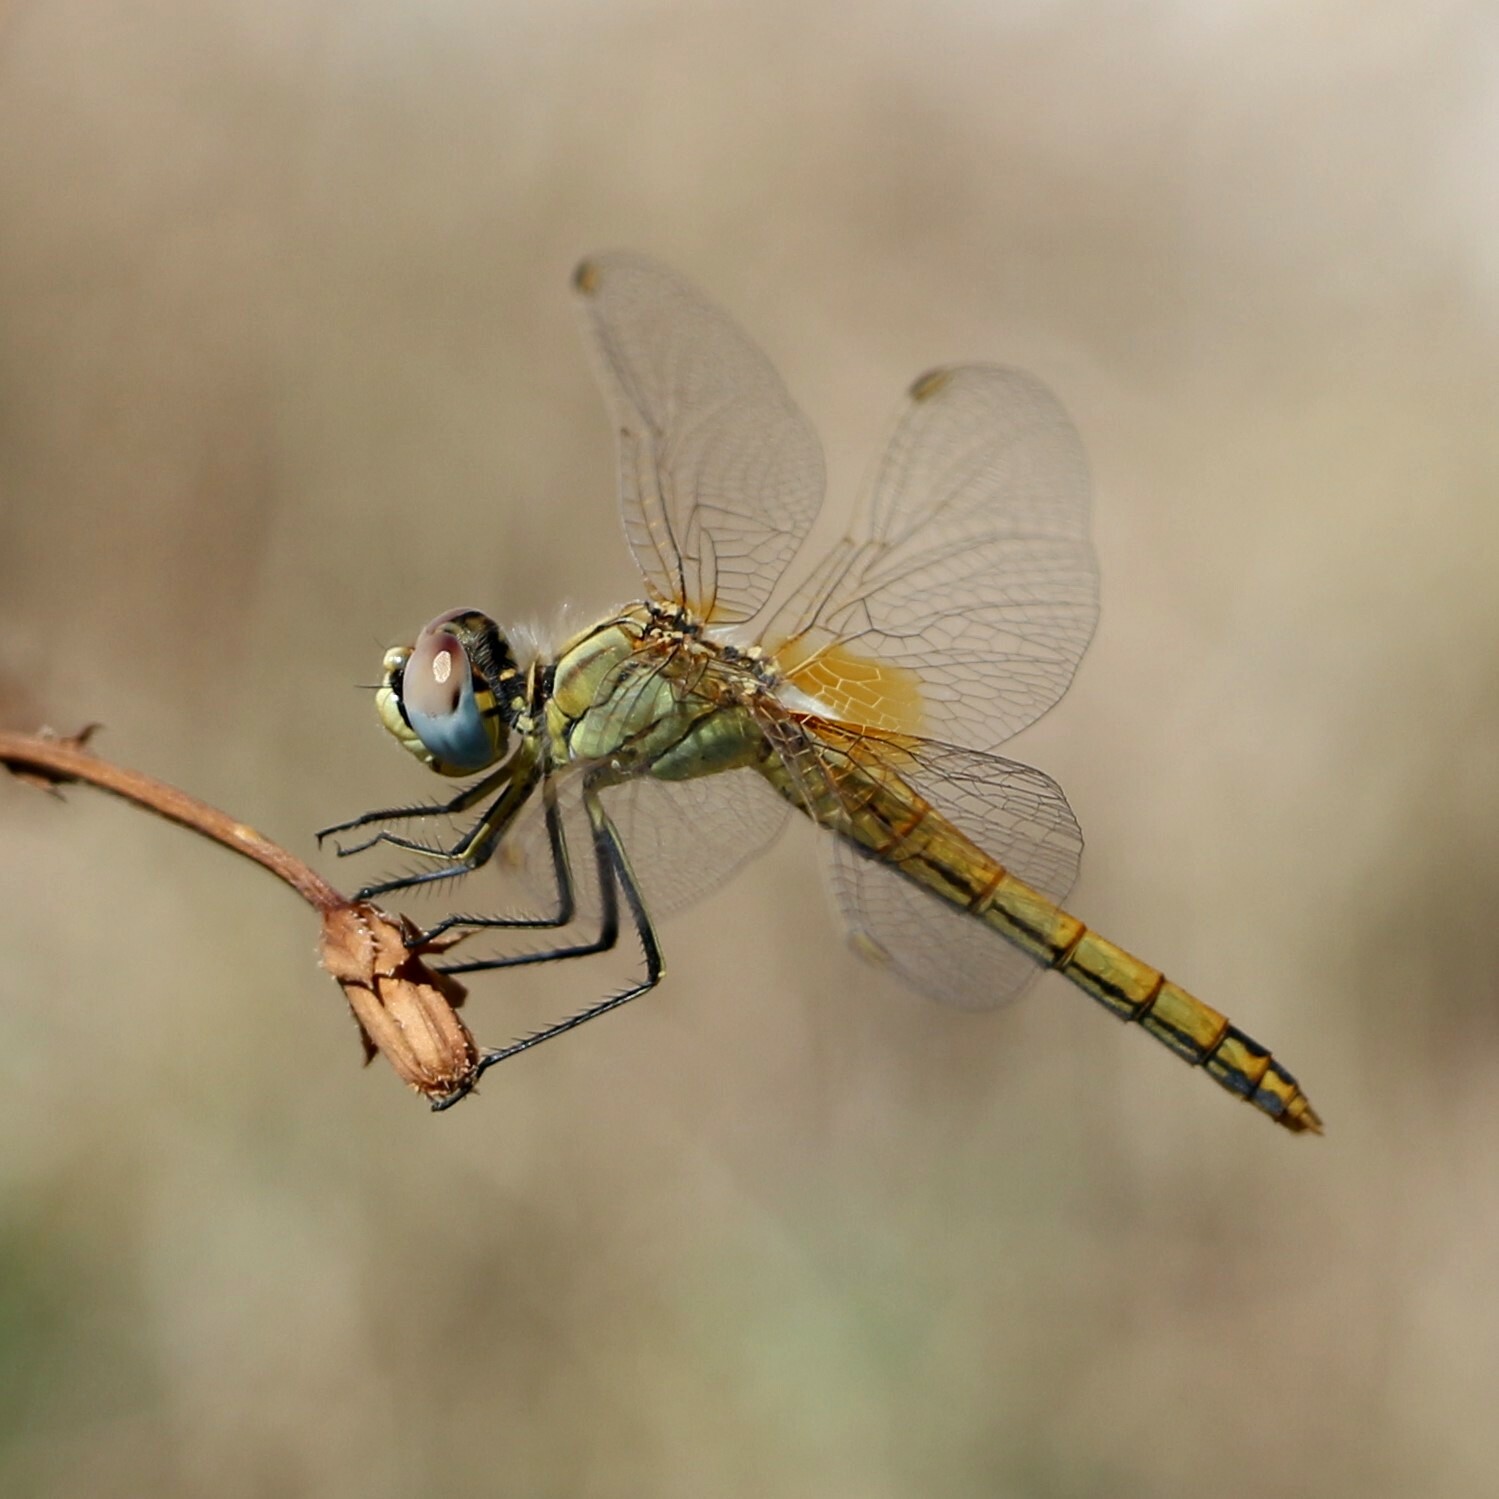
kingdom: Animalia
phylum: Arthropoda
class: Insecta
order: Odonata
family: Libellulidae
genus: Sympetrum
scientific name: Sympetrum fonscolombii
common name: Red-veined darter
